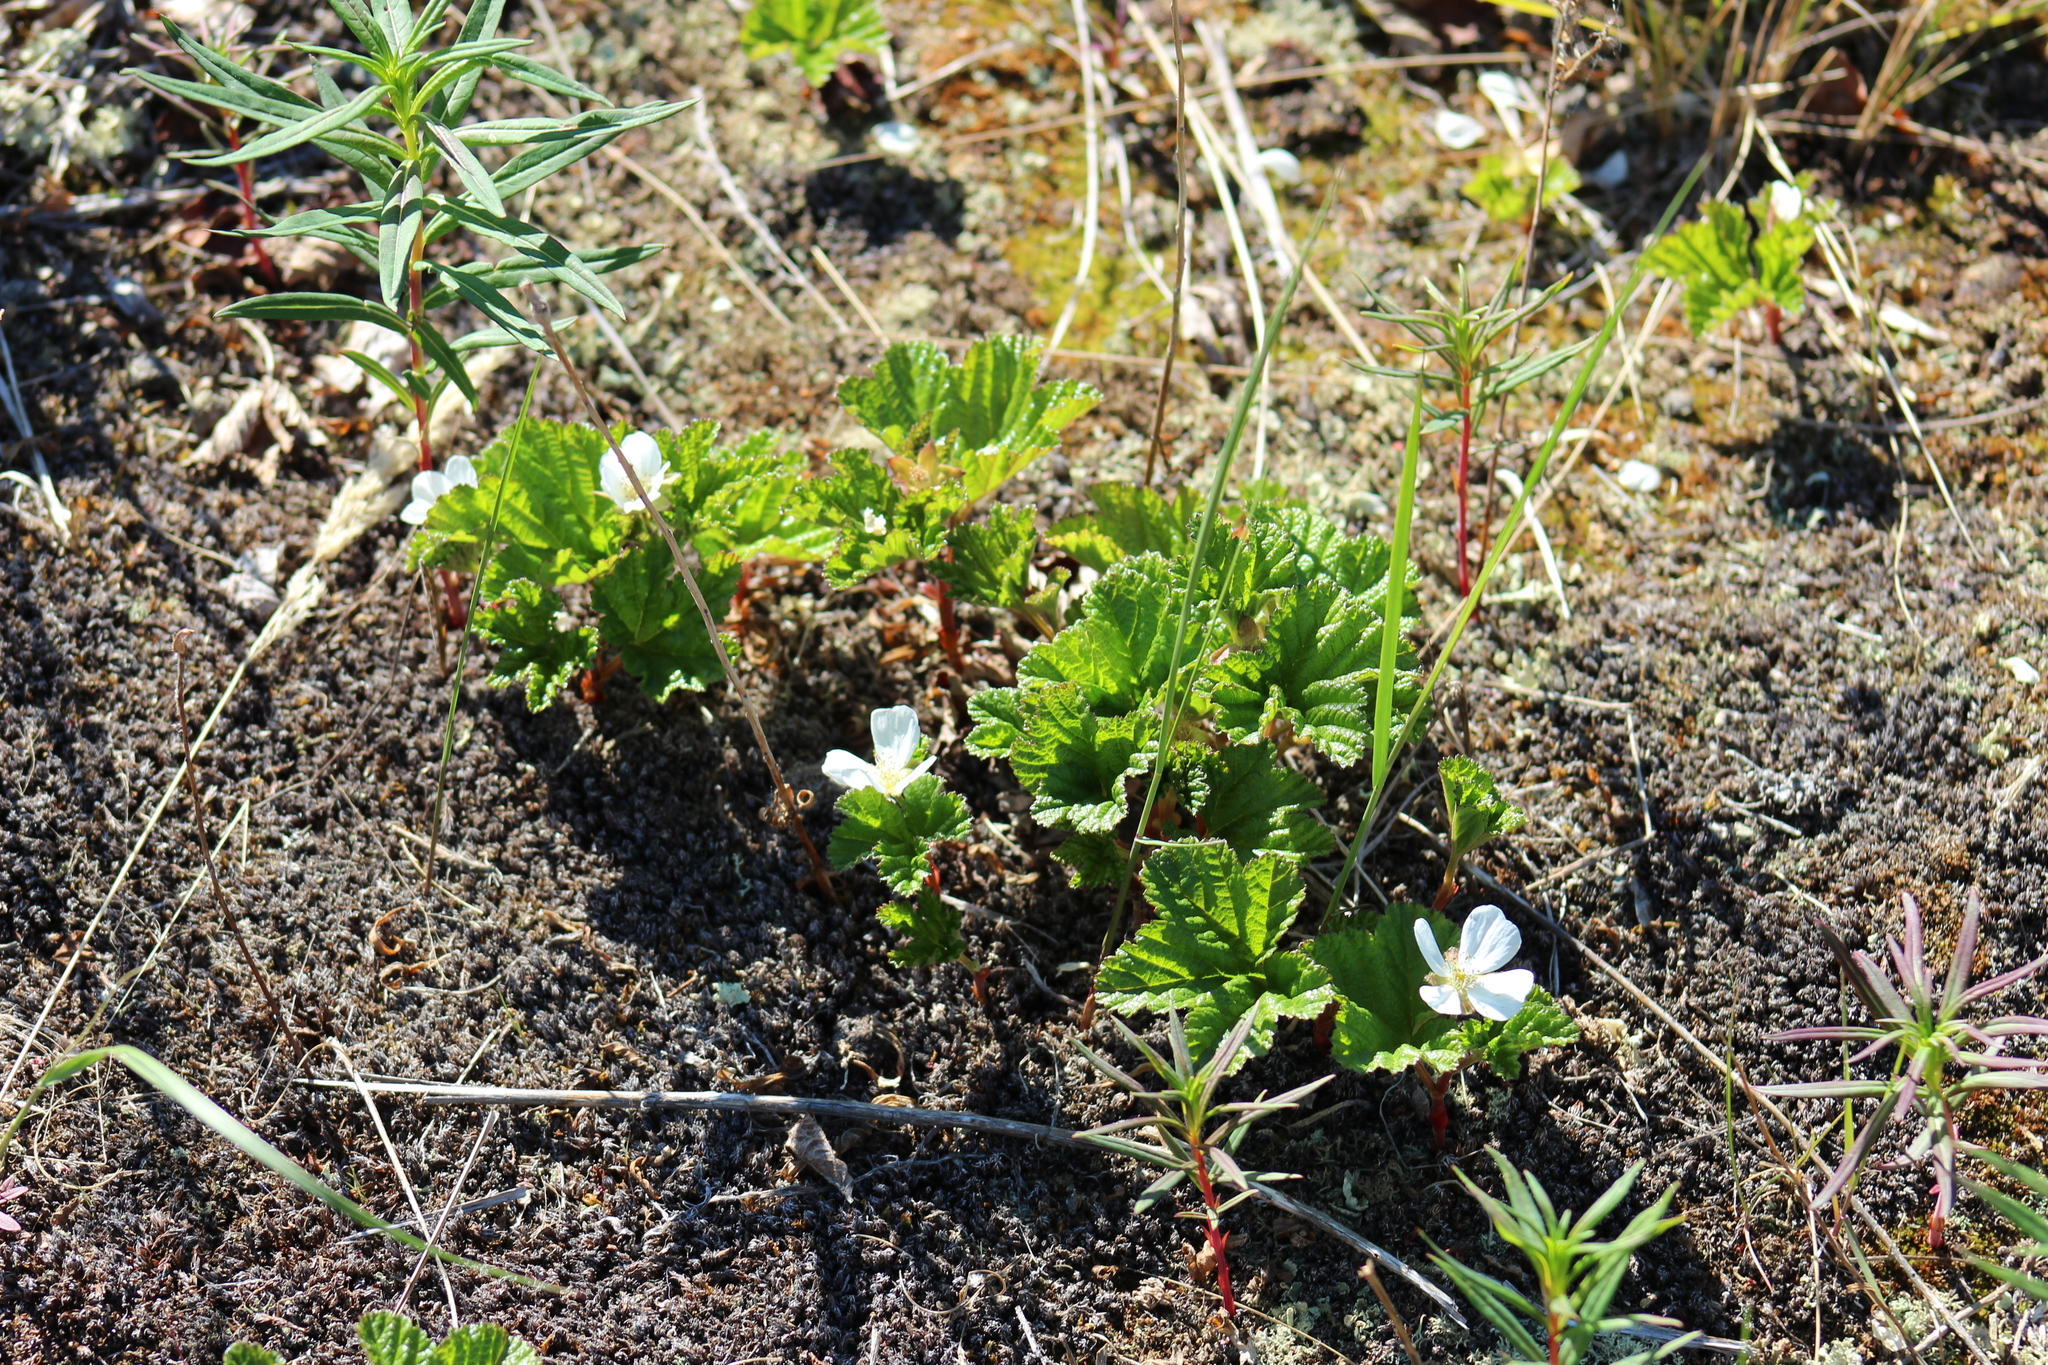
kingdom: Plantae
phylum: Tracheophyta
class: Magnoliopsida
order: Rosales
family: Rosaceae
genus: Rubus
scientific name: Rubus chamaemorus
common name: Cloudberry
